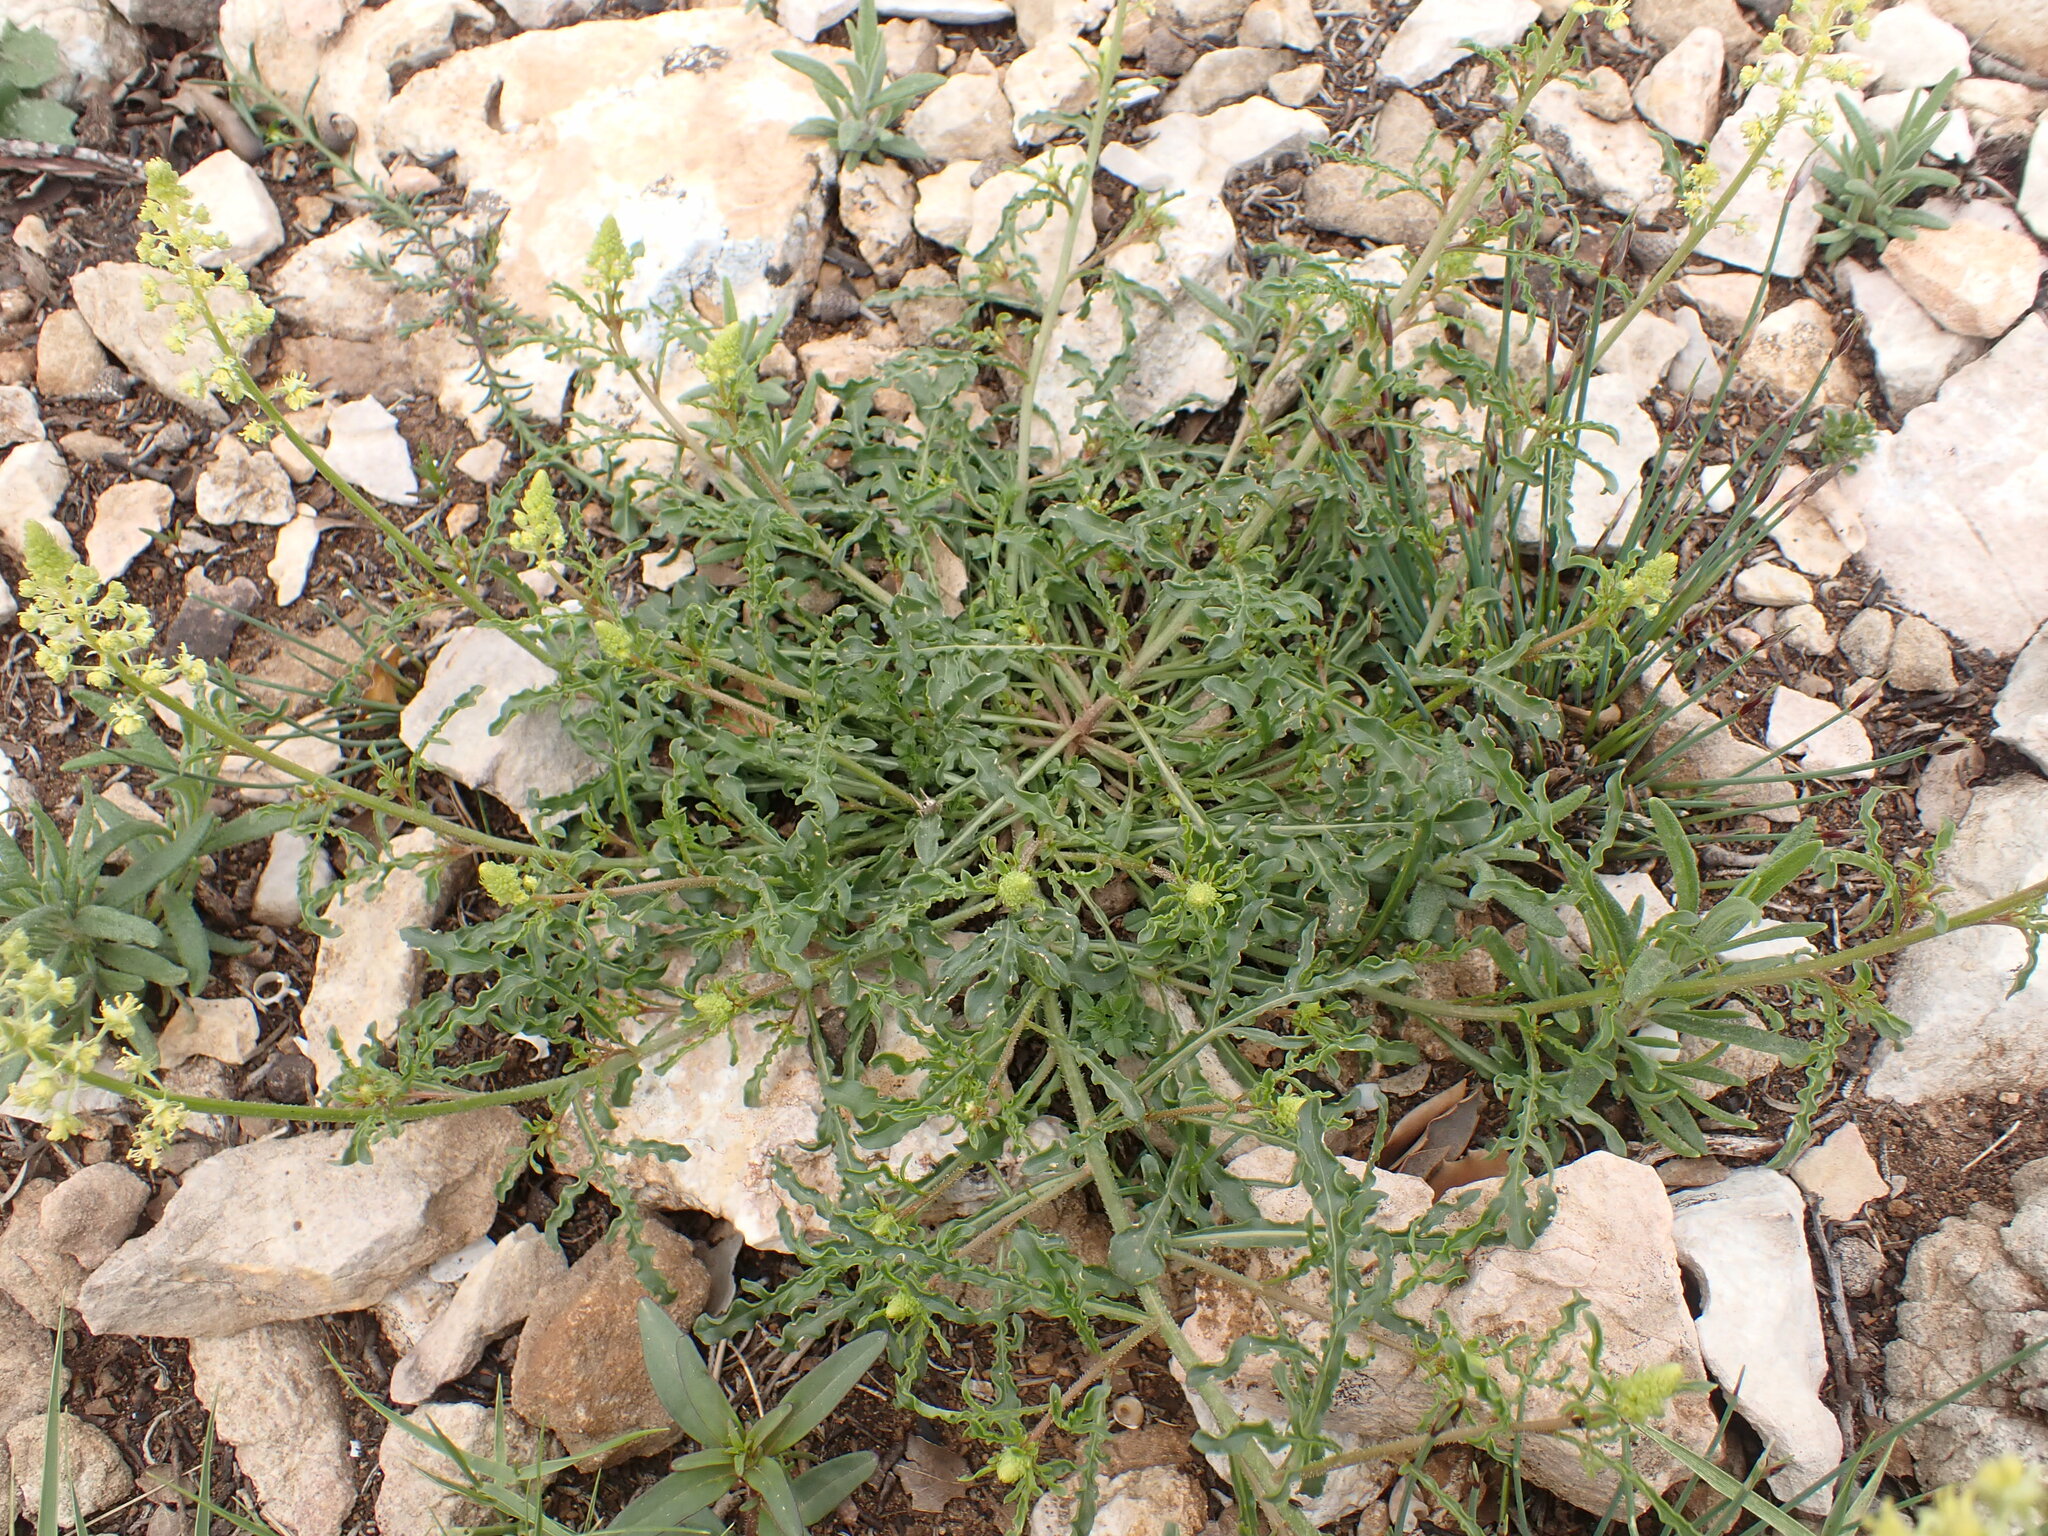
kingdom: Plantae
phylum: Tracheophyta
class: Magnoliopsida
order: Brassicales
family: Resedaceae
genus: Reseda
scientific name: Reseda lutea
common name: Wild mignonette
